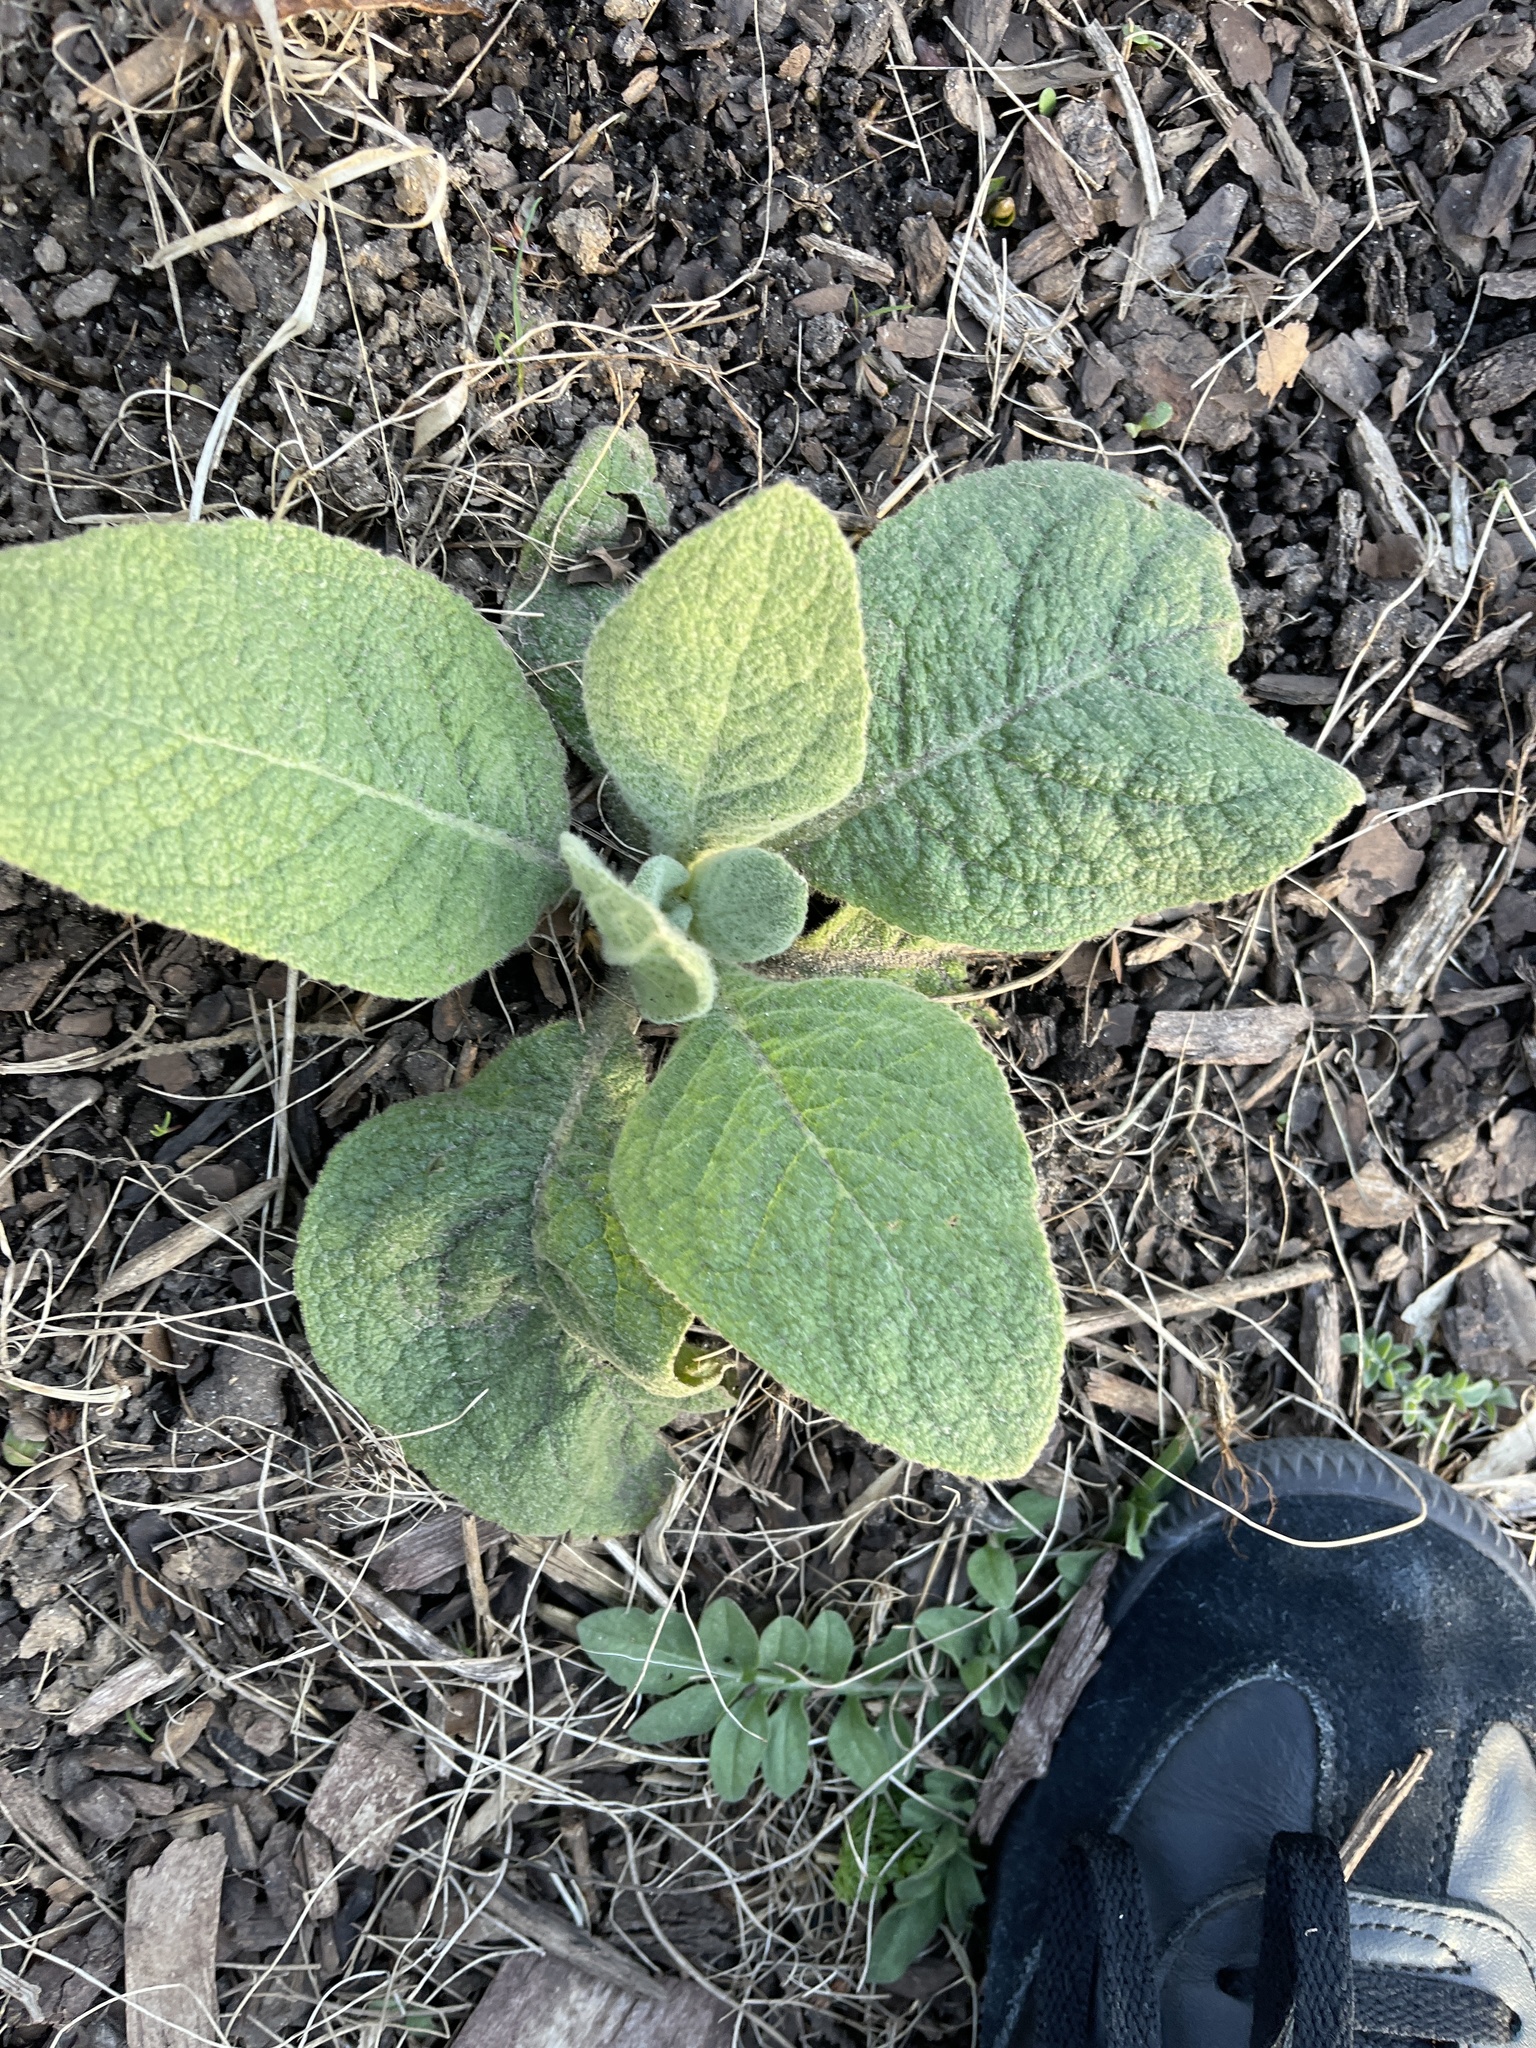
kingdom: Plantae
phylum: Tracheophyta
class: Magnoliopsida
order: Lamiales
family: Scrophulariaceae
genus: Verbascum
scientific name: Verbascum thapsus
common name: Common mullein
